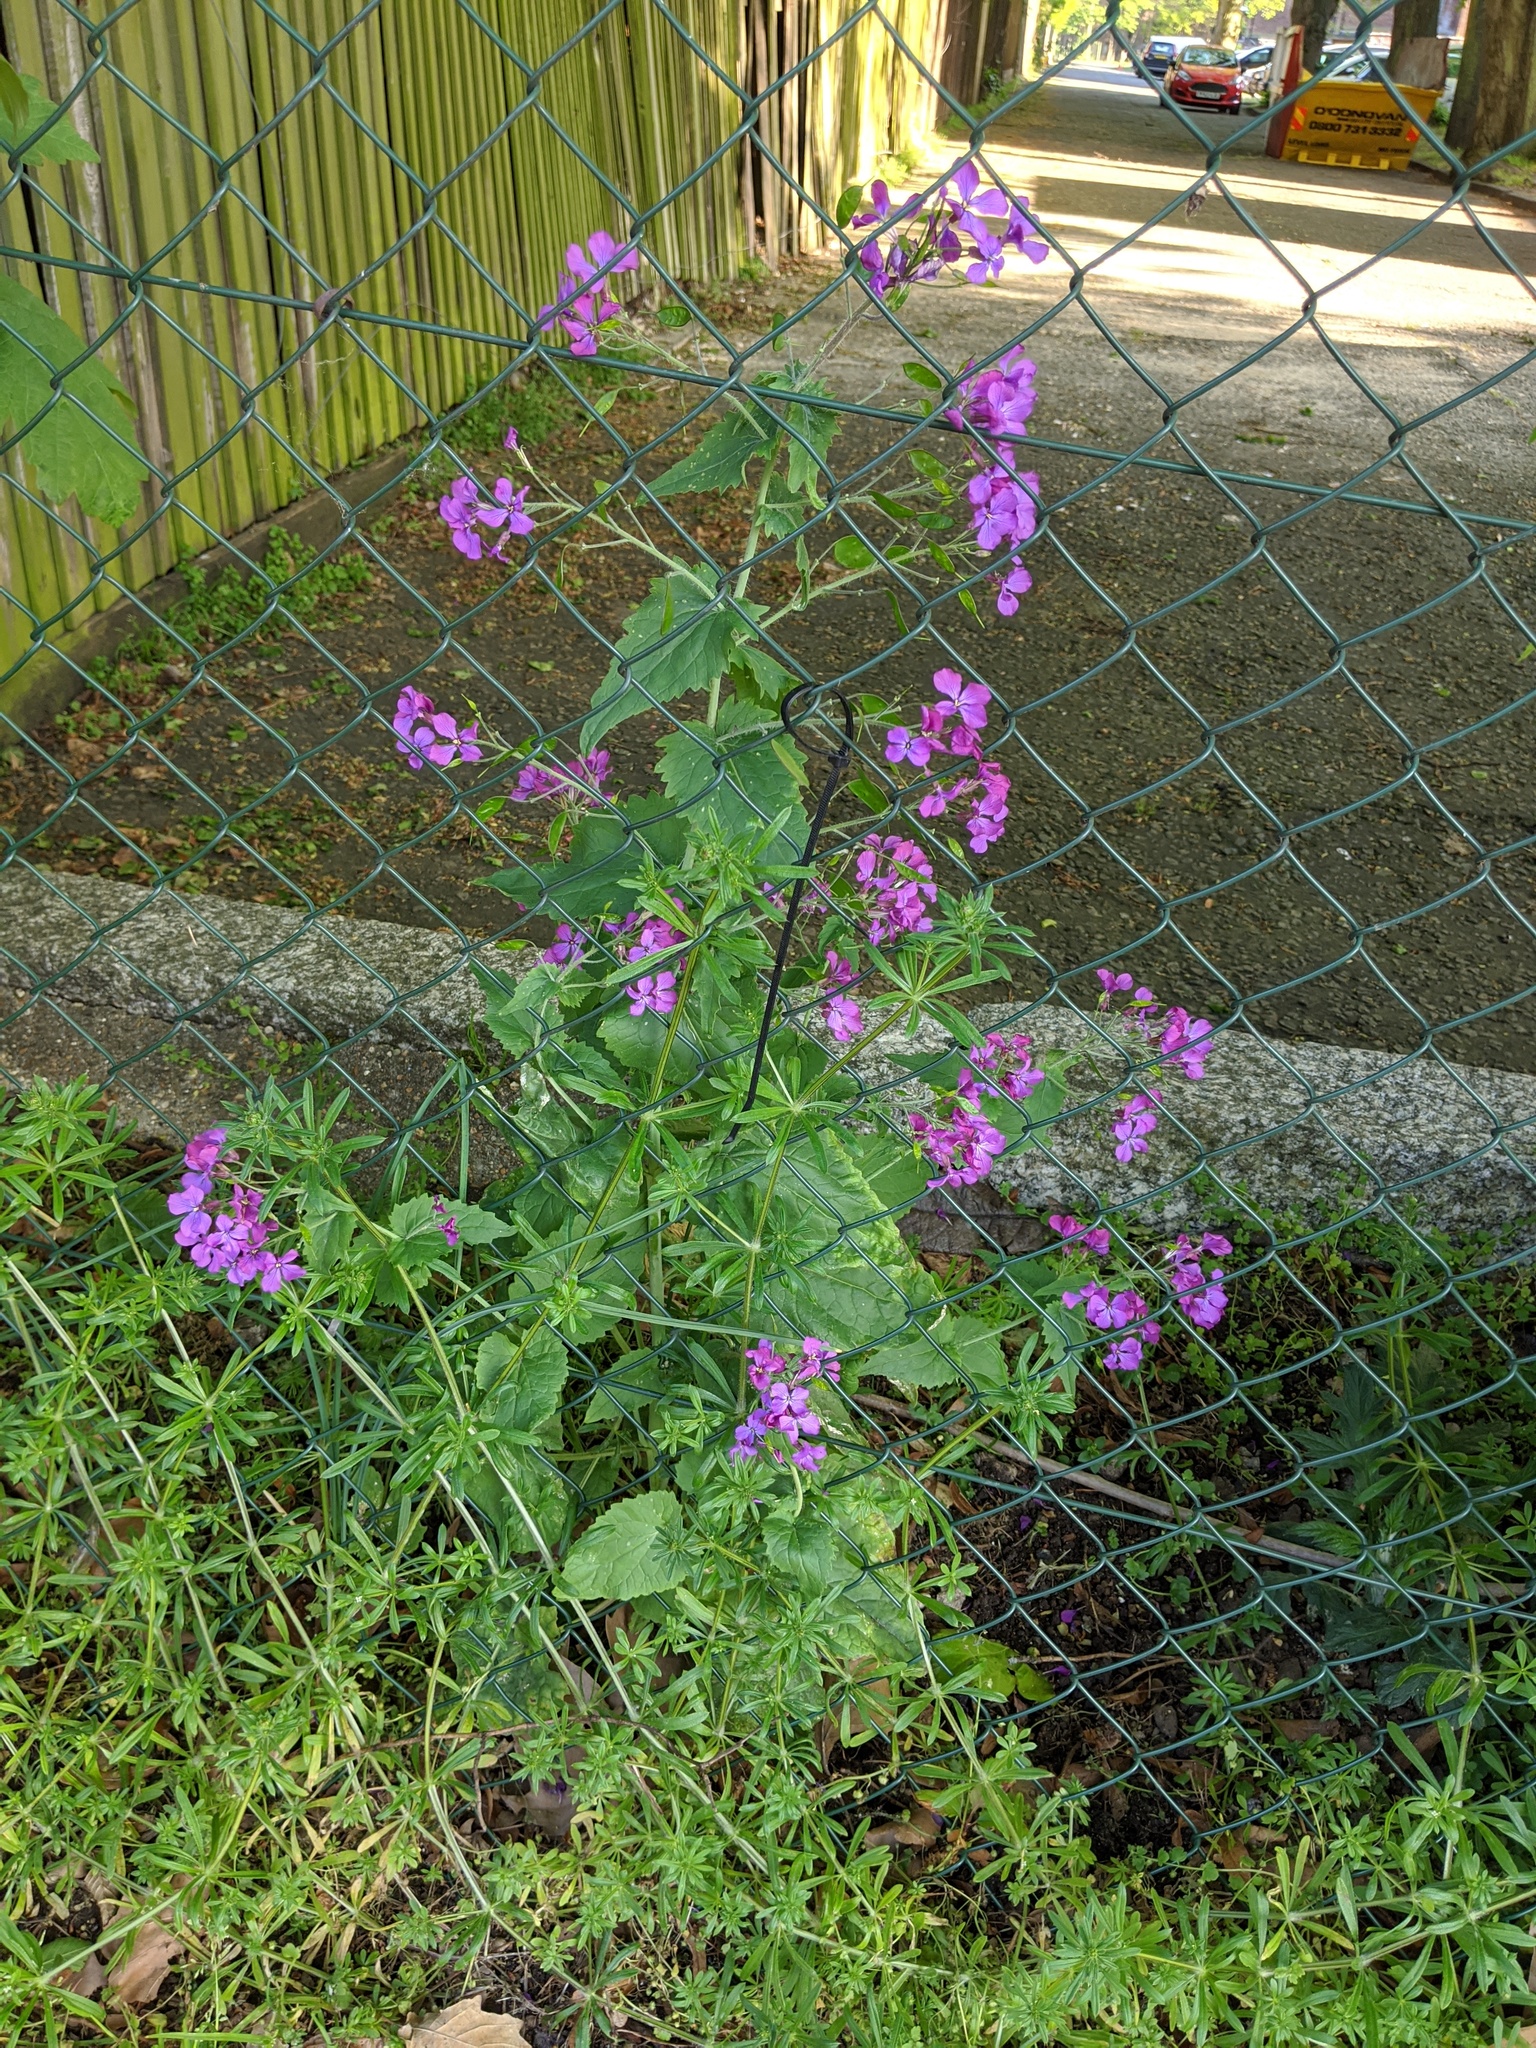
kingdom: Plantae
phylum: Tracheophyta
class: Magnoliopsida
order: Brassicales
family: Brassicaceae
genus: Lunaria
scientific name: Lunaria annua
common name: Honesty
